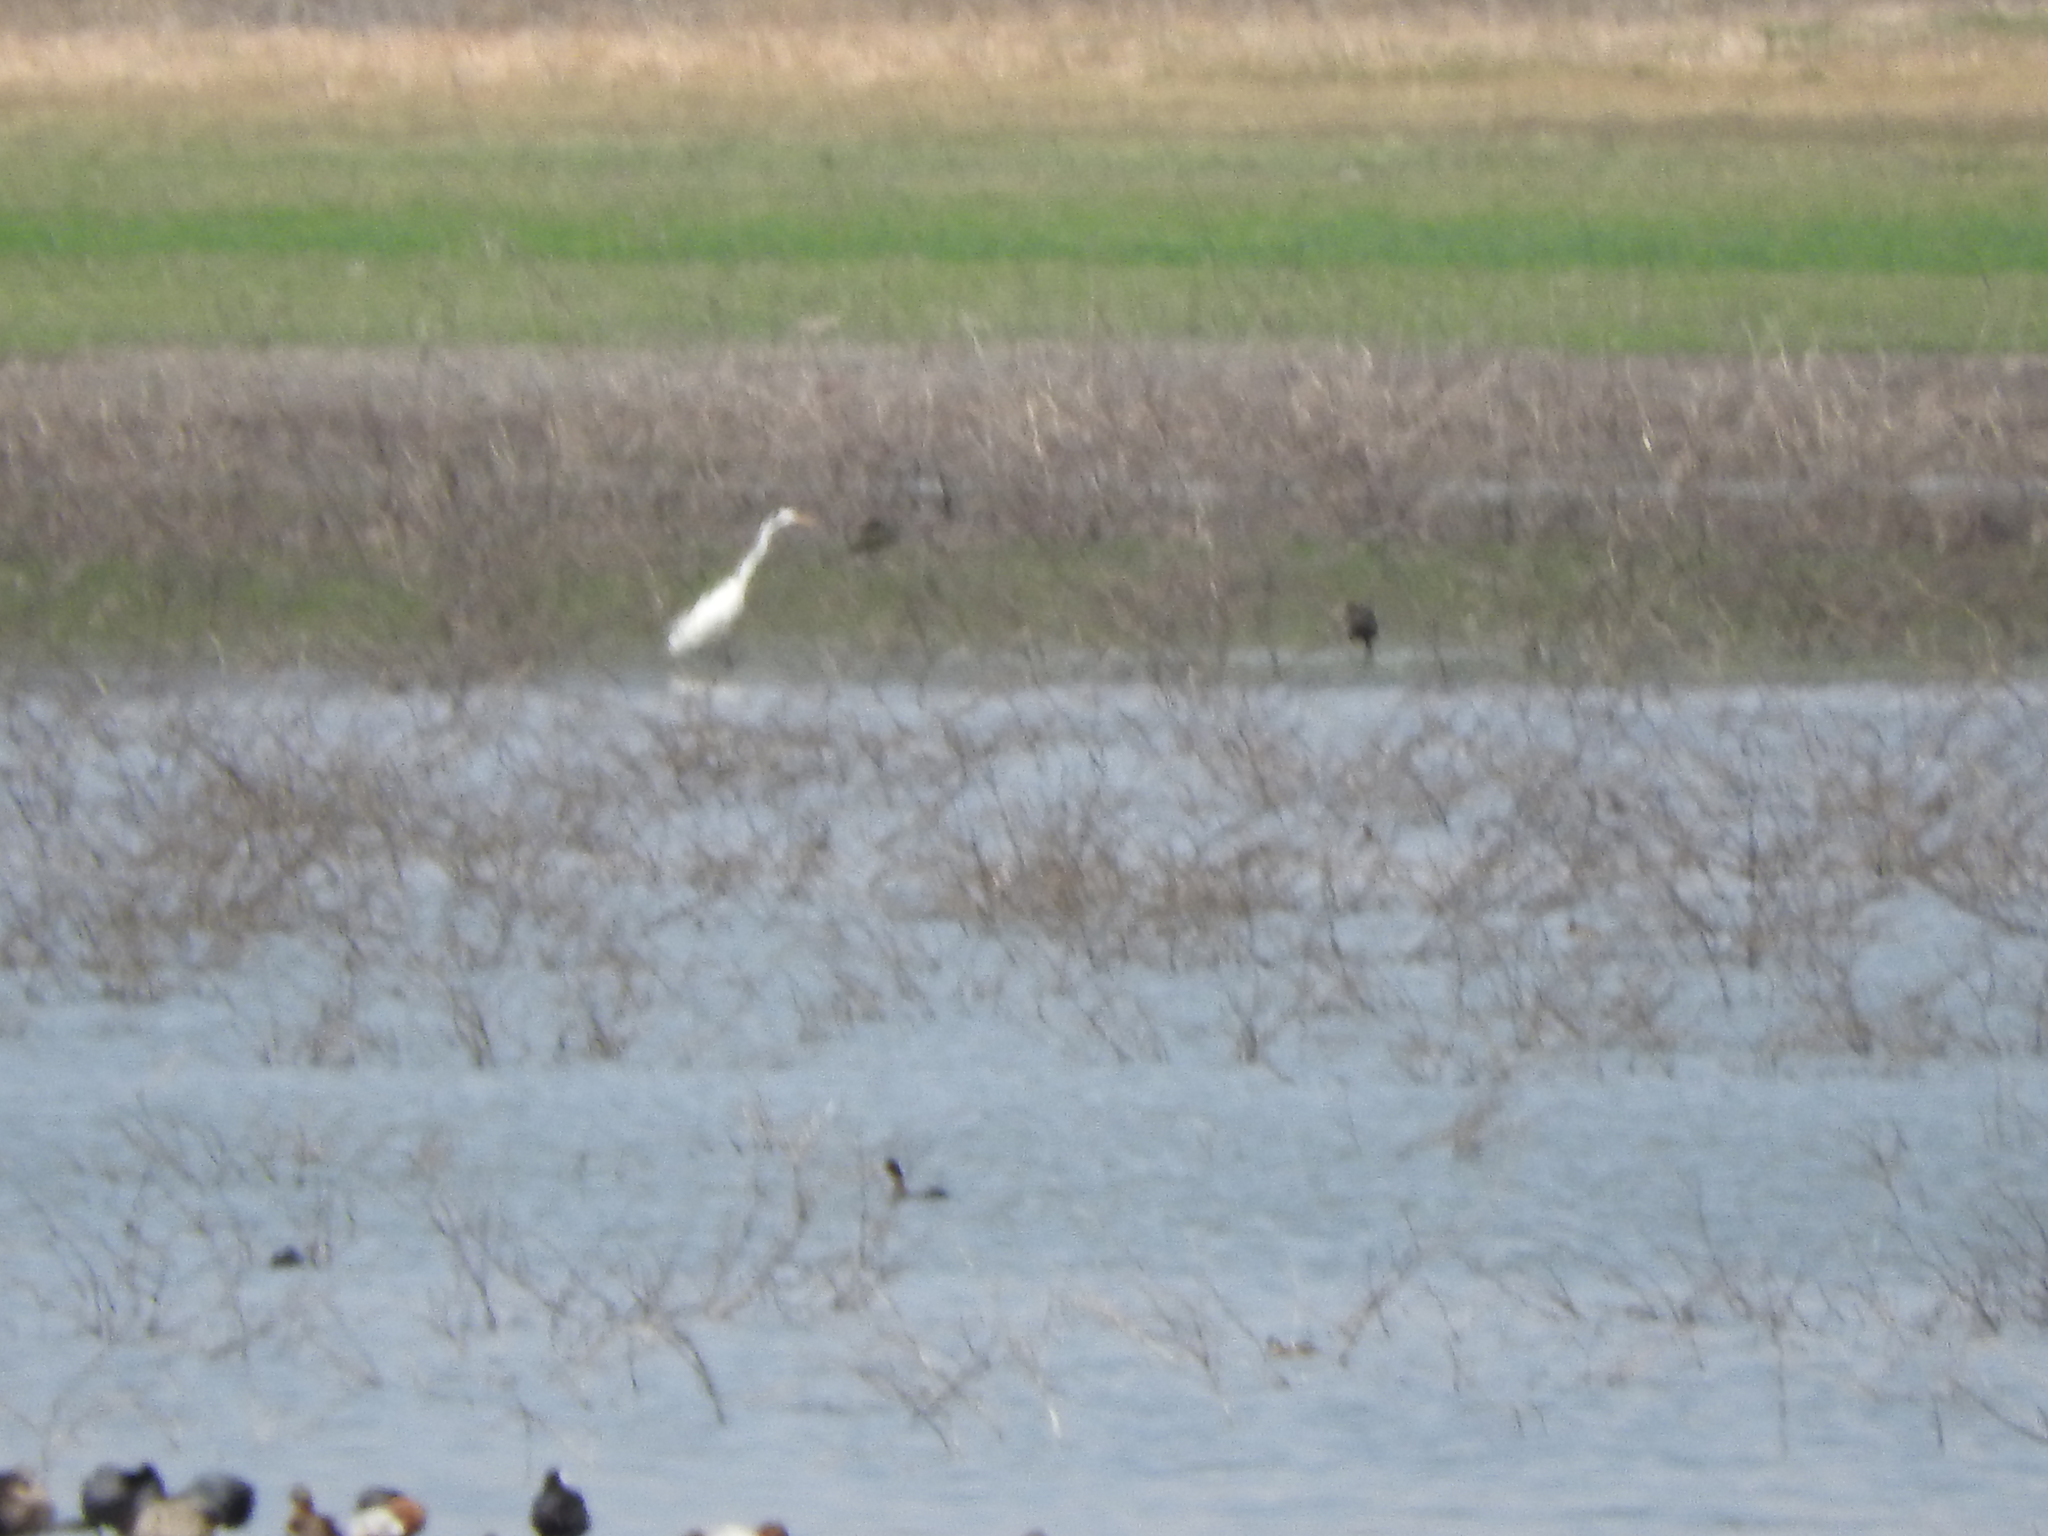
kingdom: Animalia
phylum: Chordata
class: Aves
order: Pelecaniformes
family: Ardeidae
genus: Ardea
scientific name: Ardea alba
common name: Great egret
